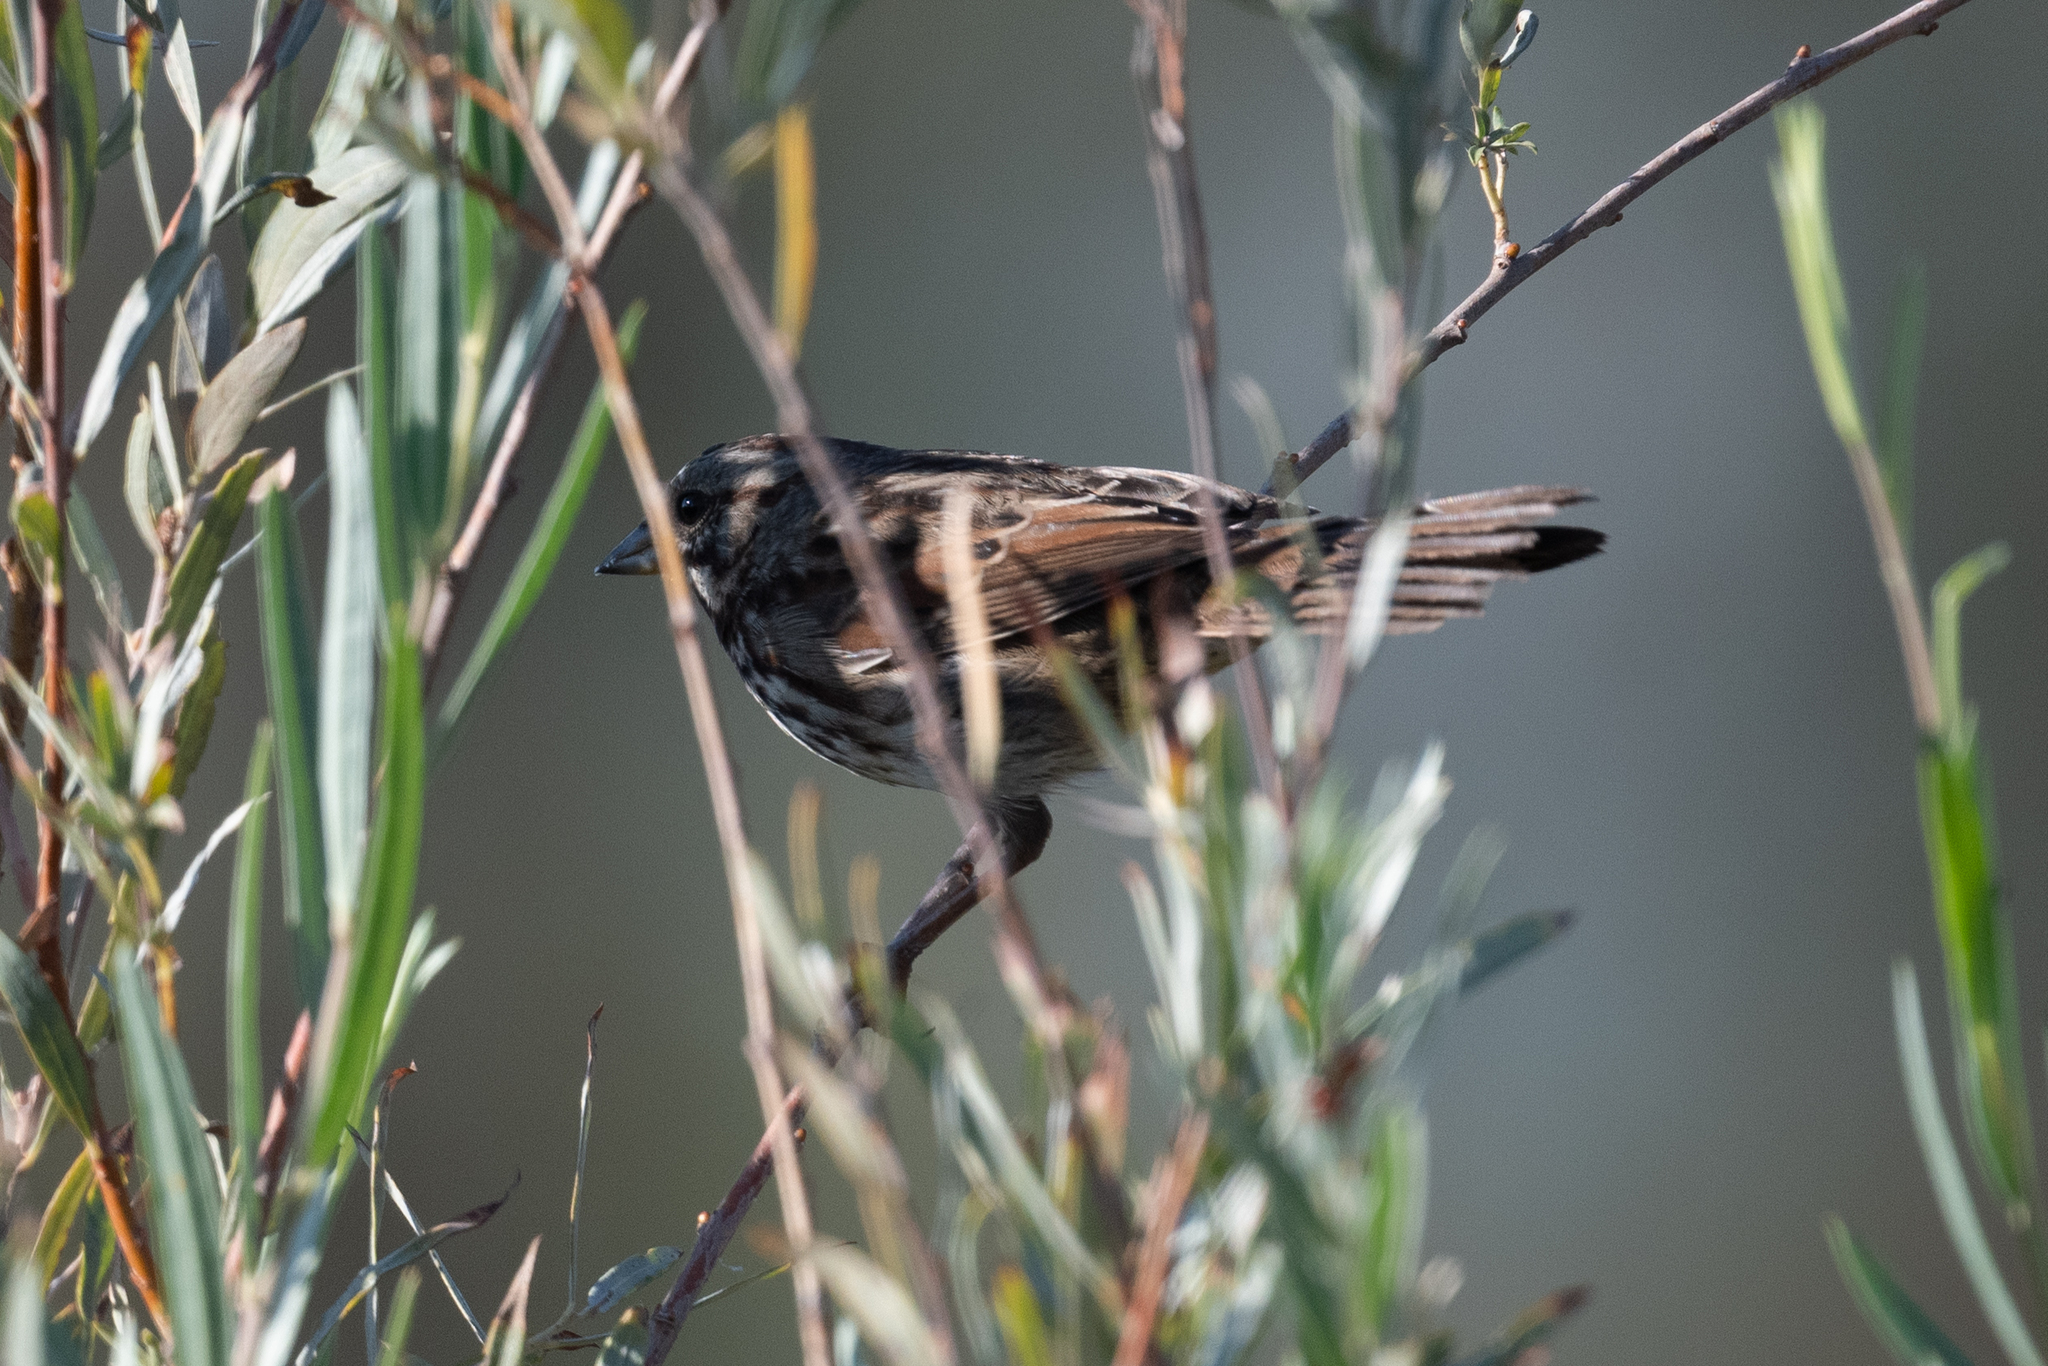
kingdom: Animalia
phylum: Chordata
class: Aves
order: Passeriformes
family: Passerellidae
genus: Melospiza
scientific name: Melospiza melodia
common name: Song sparrow
